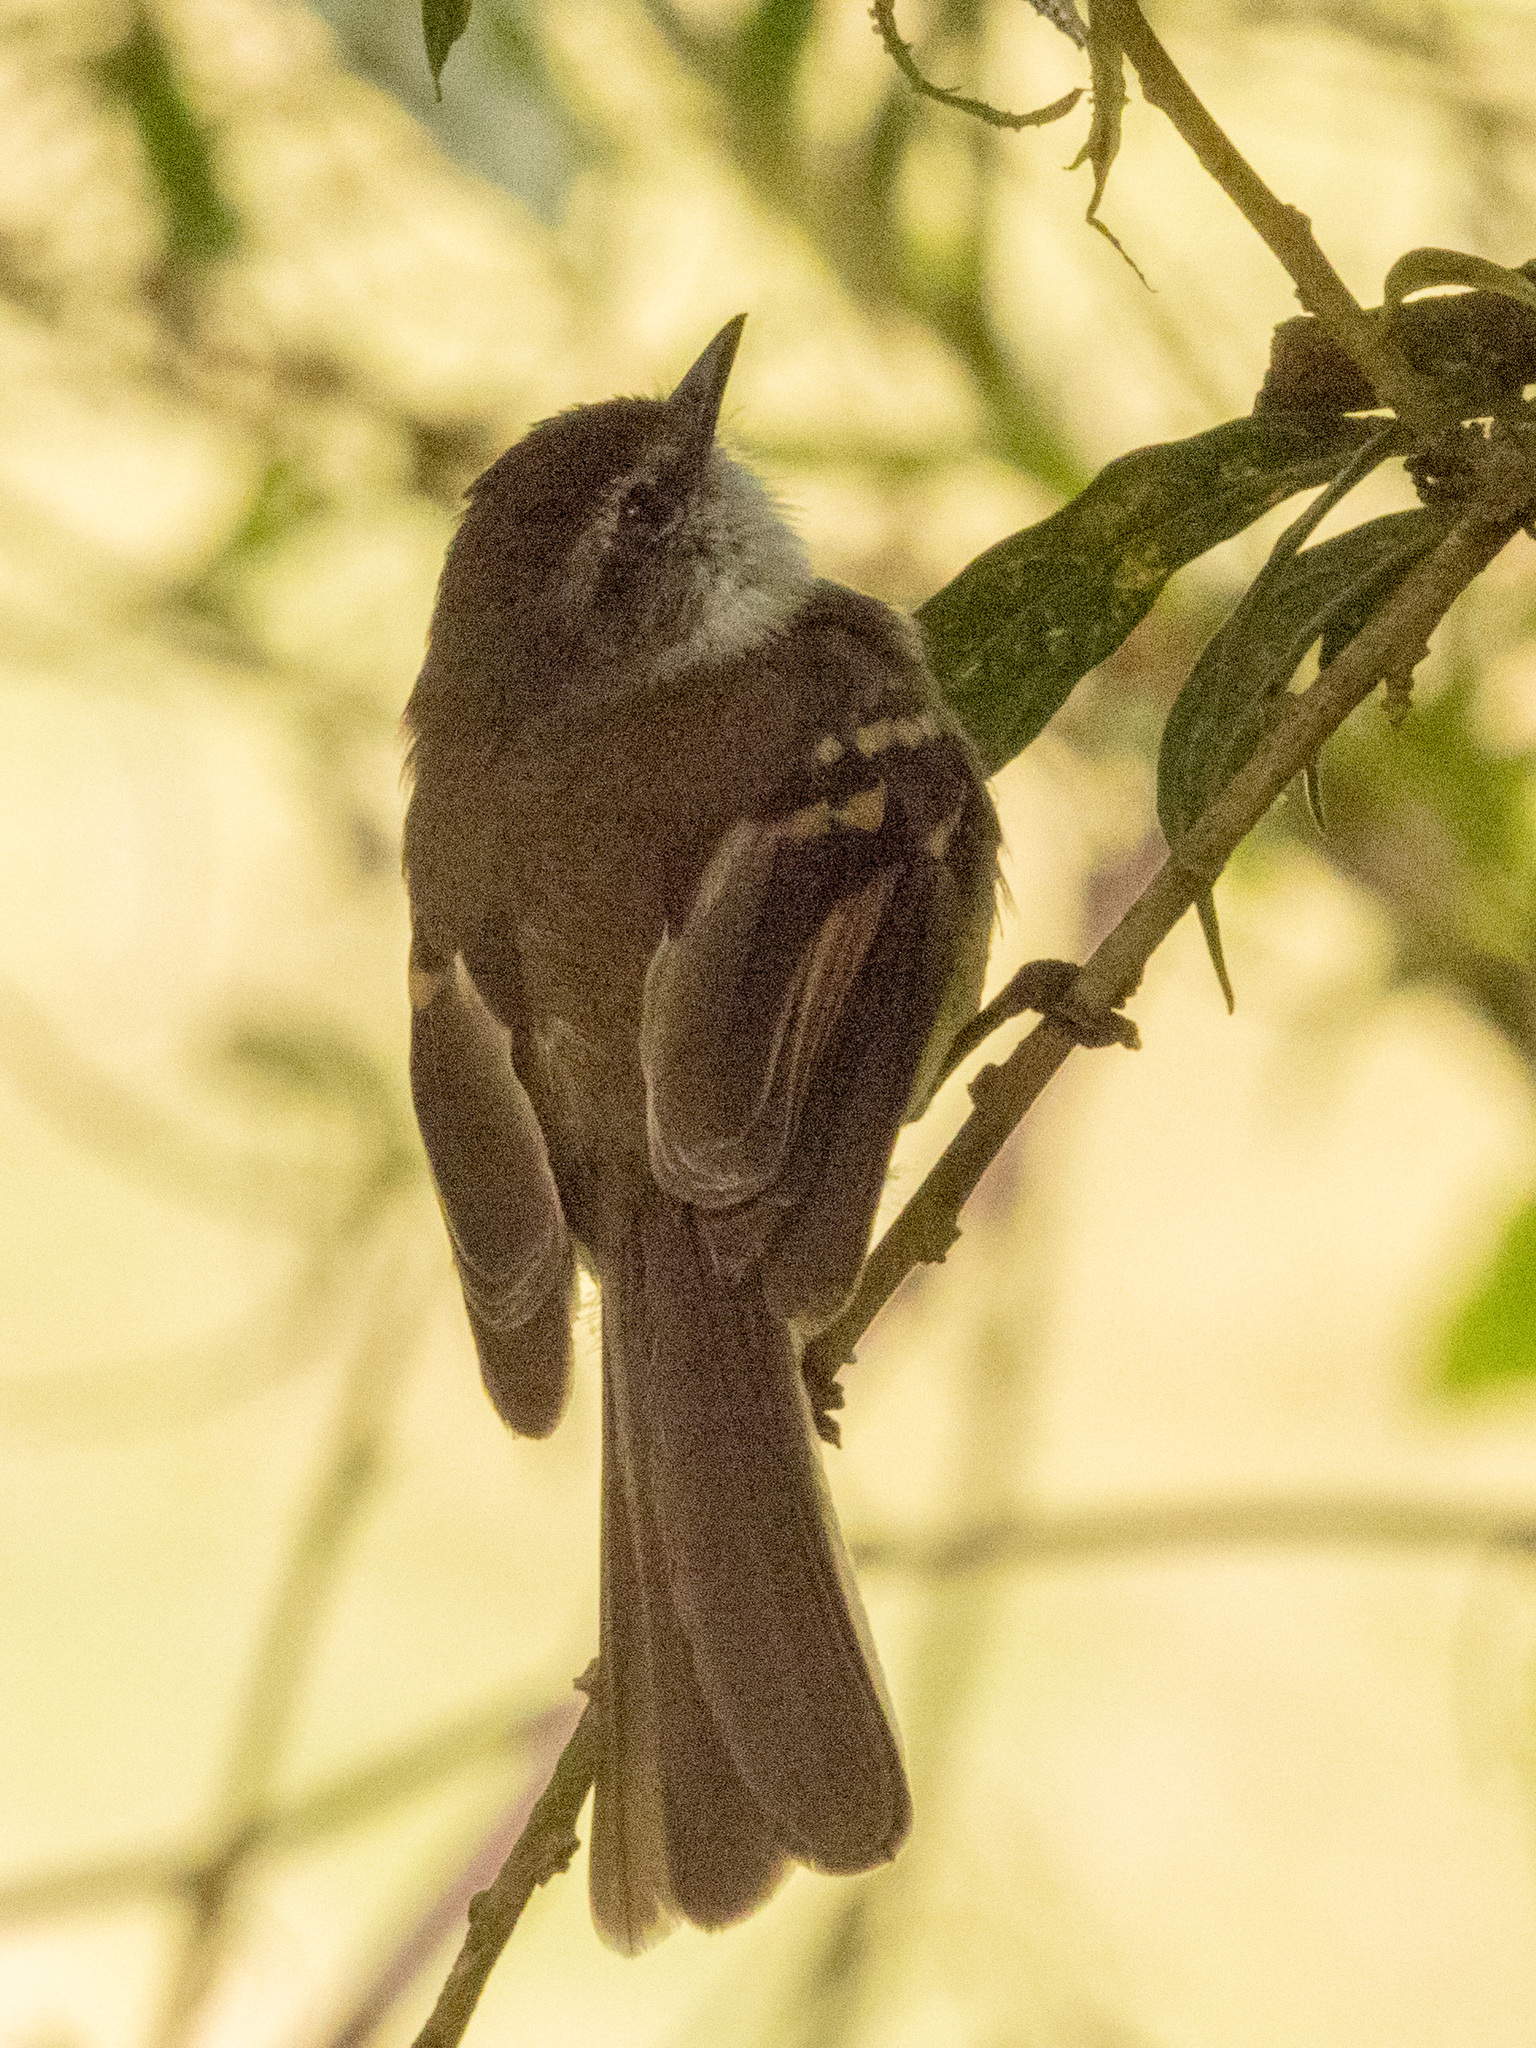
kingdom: Animalia
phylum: Chordata
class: Aves
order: Passeriformes
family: Tyrannidae
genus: Mecocerculus
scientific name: Mecocerculus leucophrys
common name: White-throated tyrannulet
